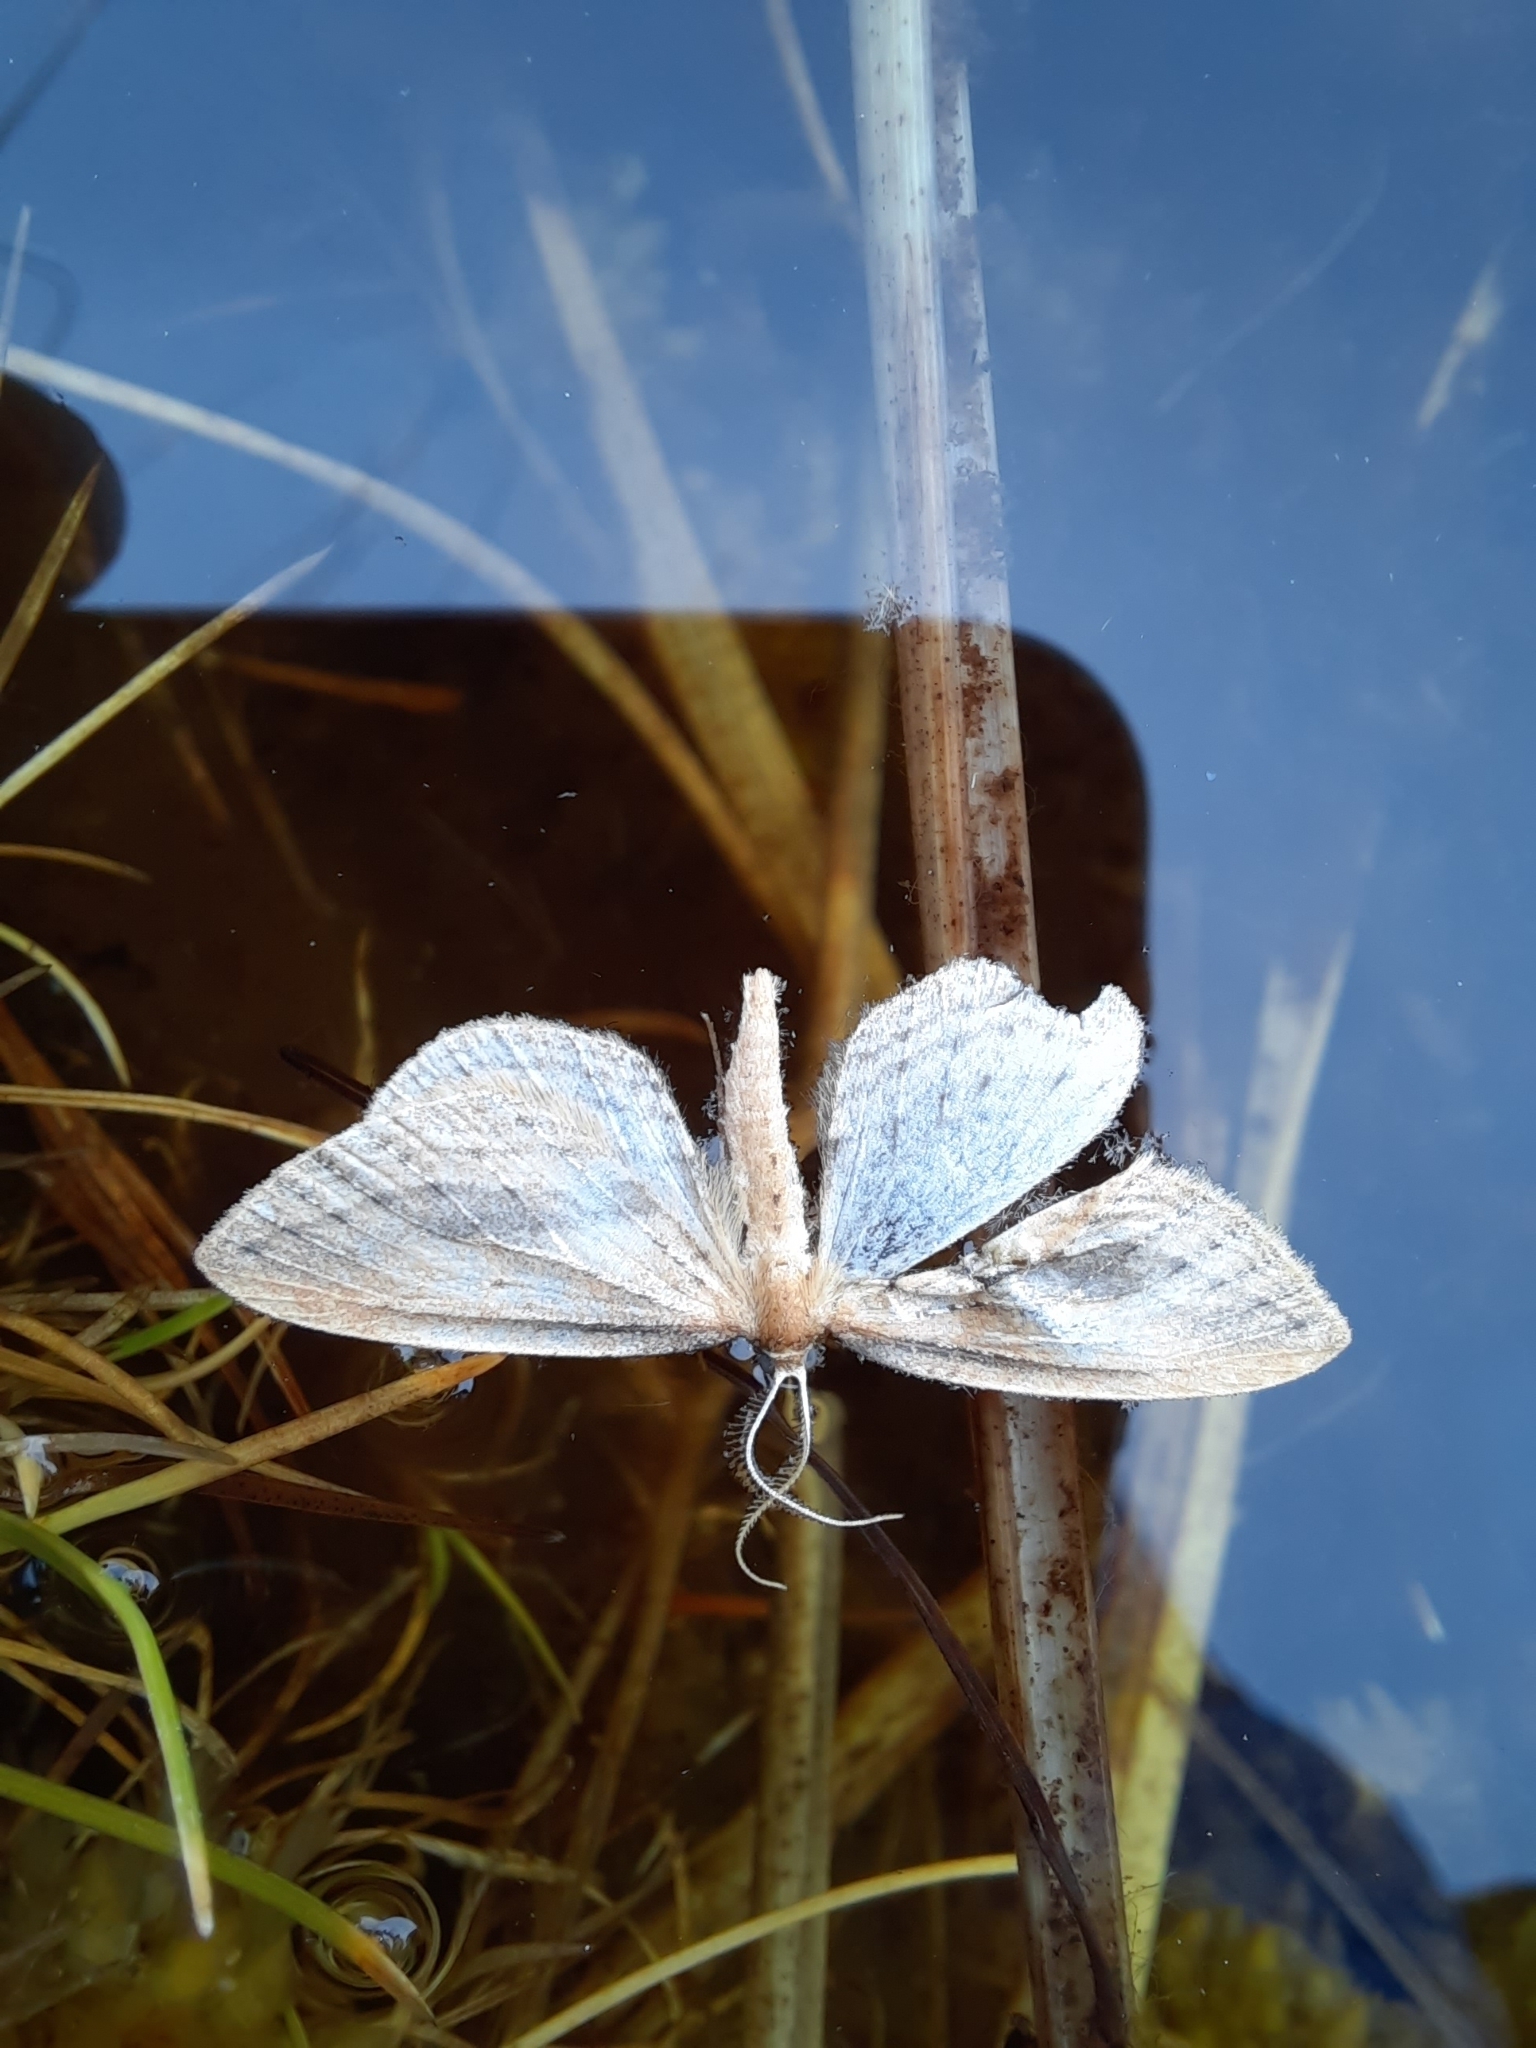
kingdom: Animalia
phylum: Arthropoda
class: Insecta
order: Lepidoptera
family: Geometridae
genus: Epiphryne
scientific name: Epiphryne charidema
